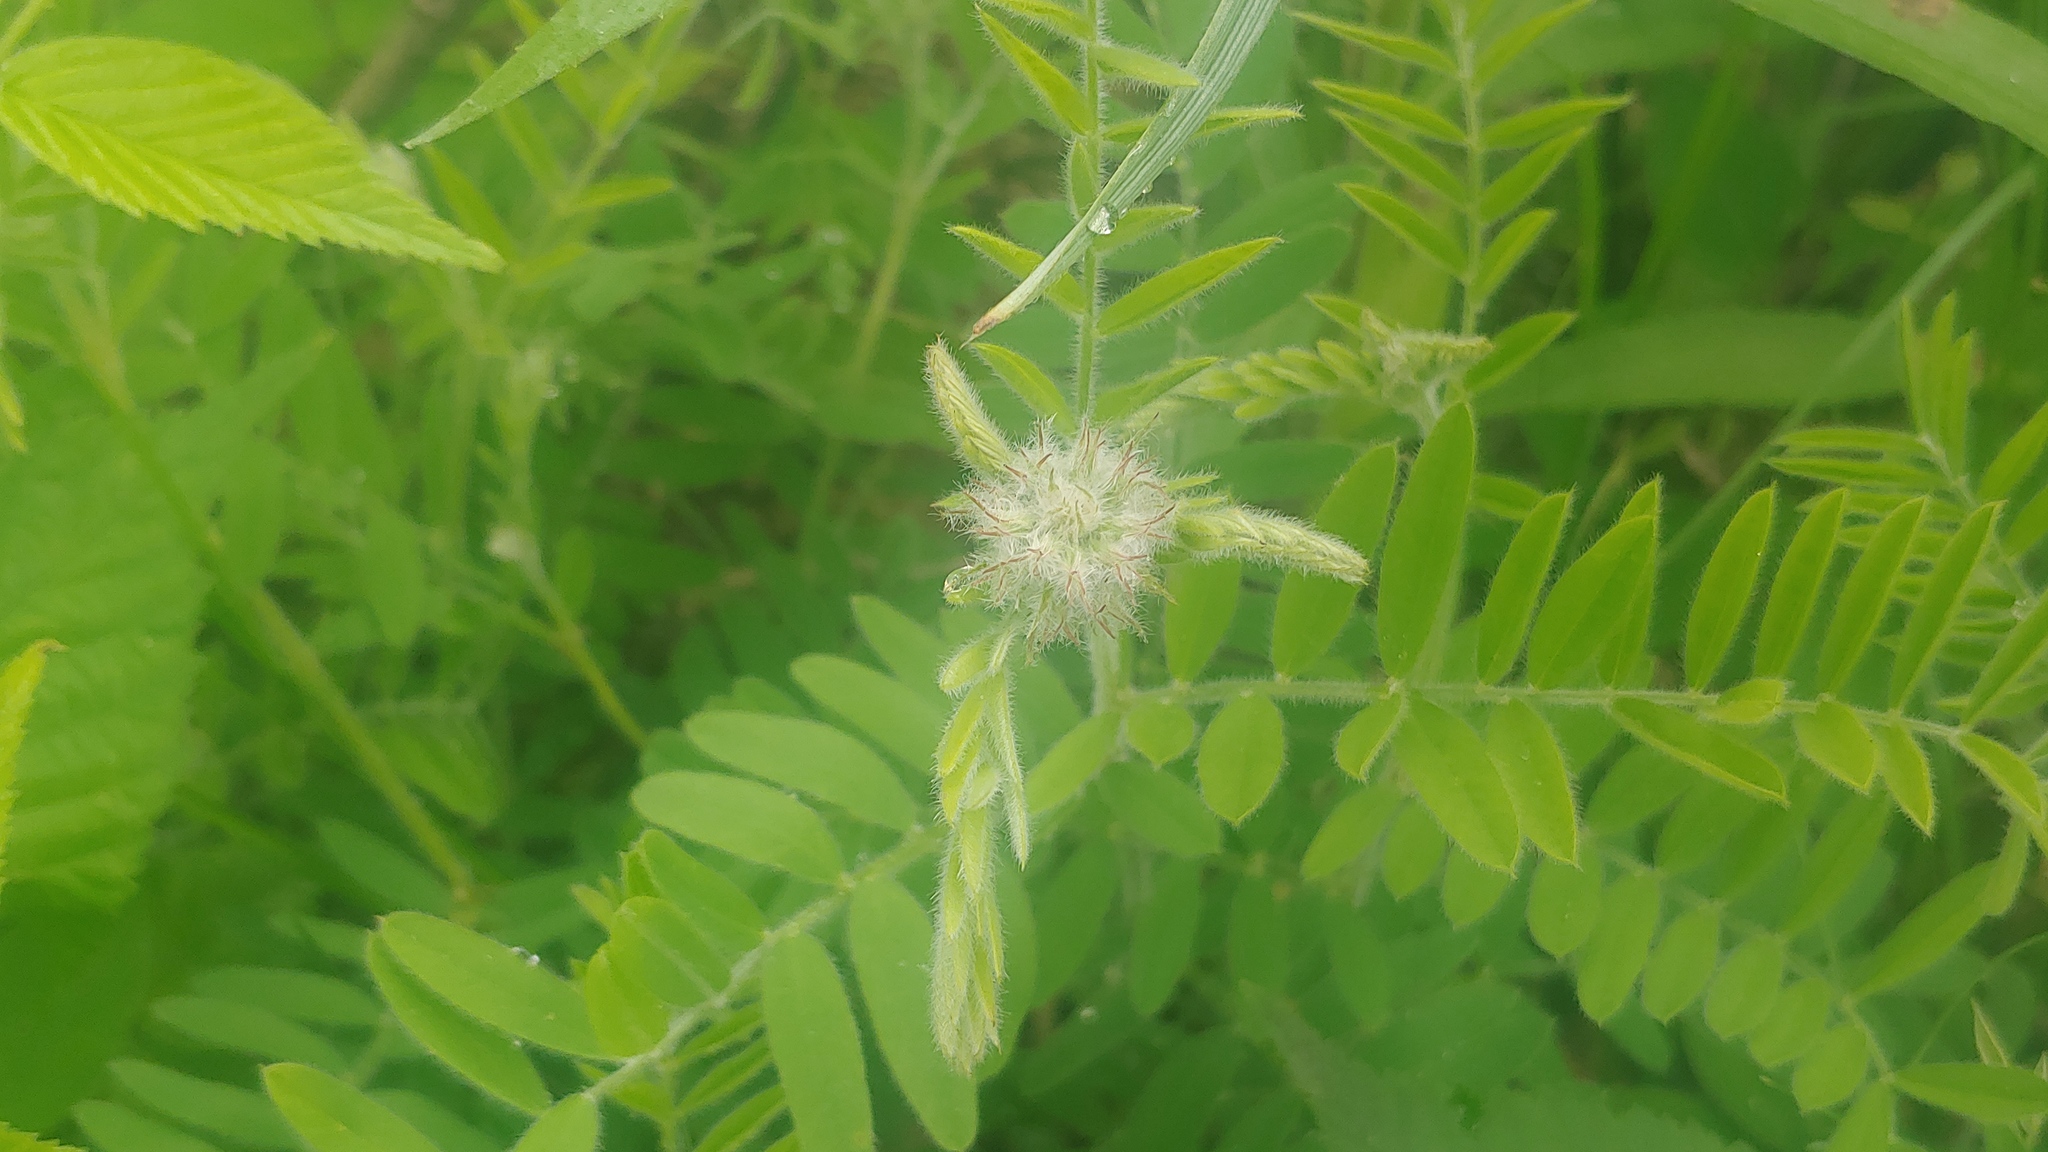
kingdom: Plantae
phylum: Tracheophyta
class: Magnoliopsida
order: Fabales
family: Fabaceae
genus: Tephrosia
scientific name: Tephrosia virginiana
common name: Rabbit-pea
